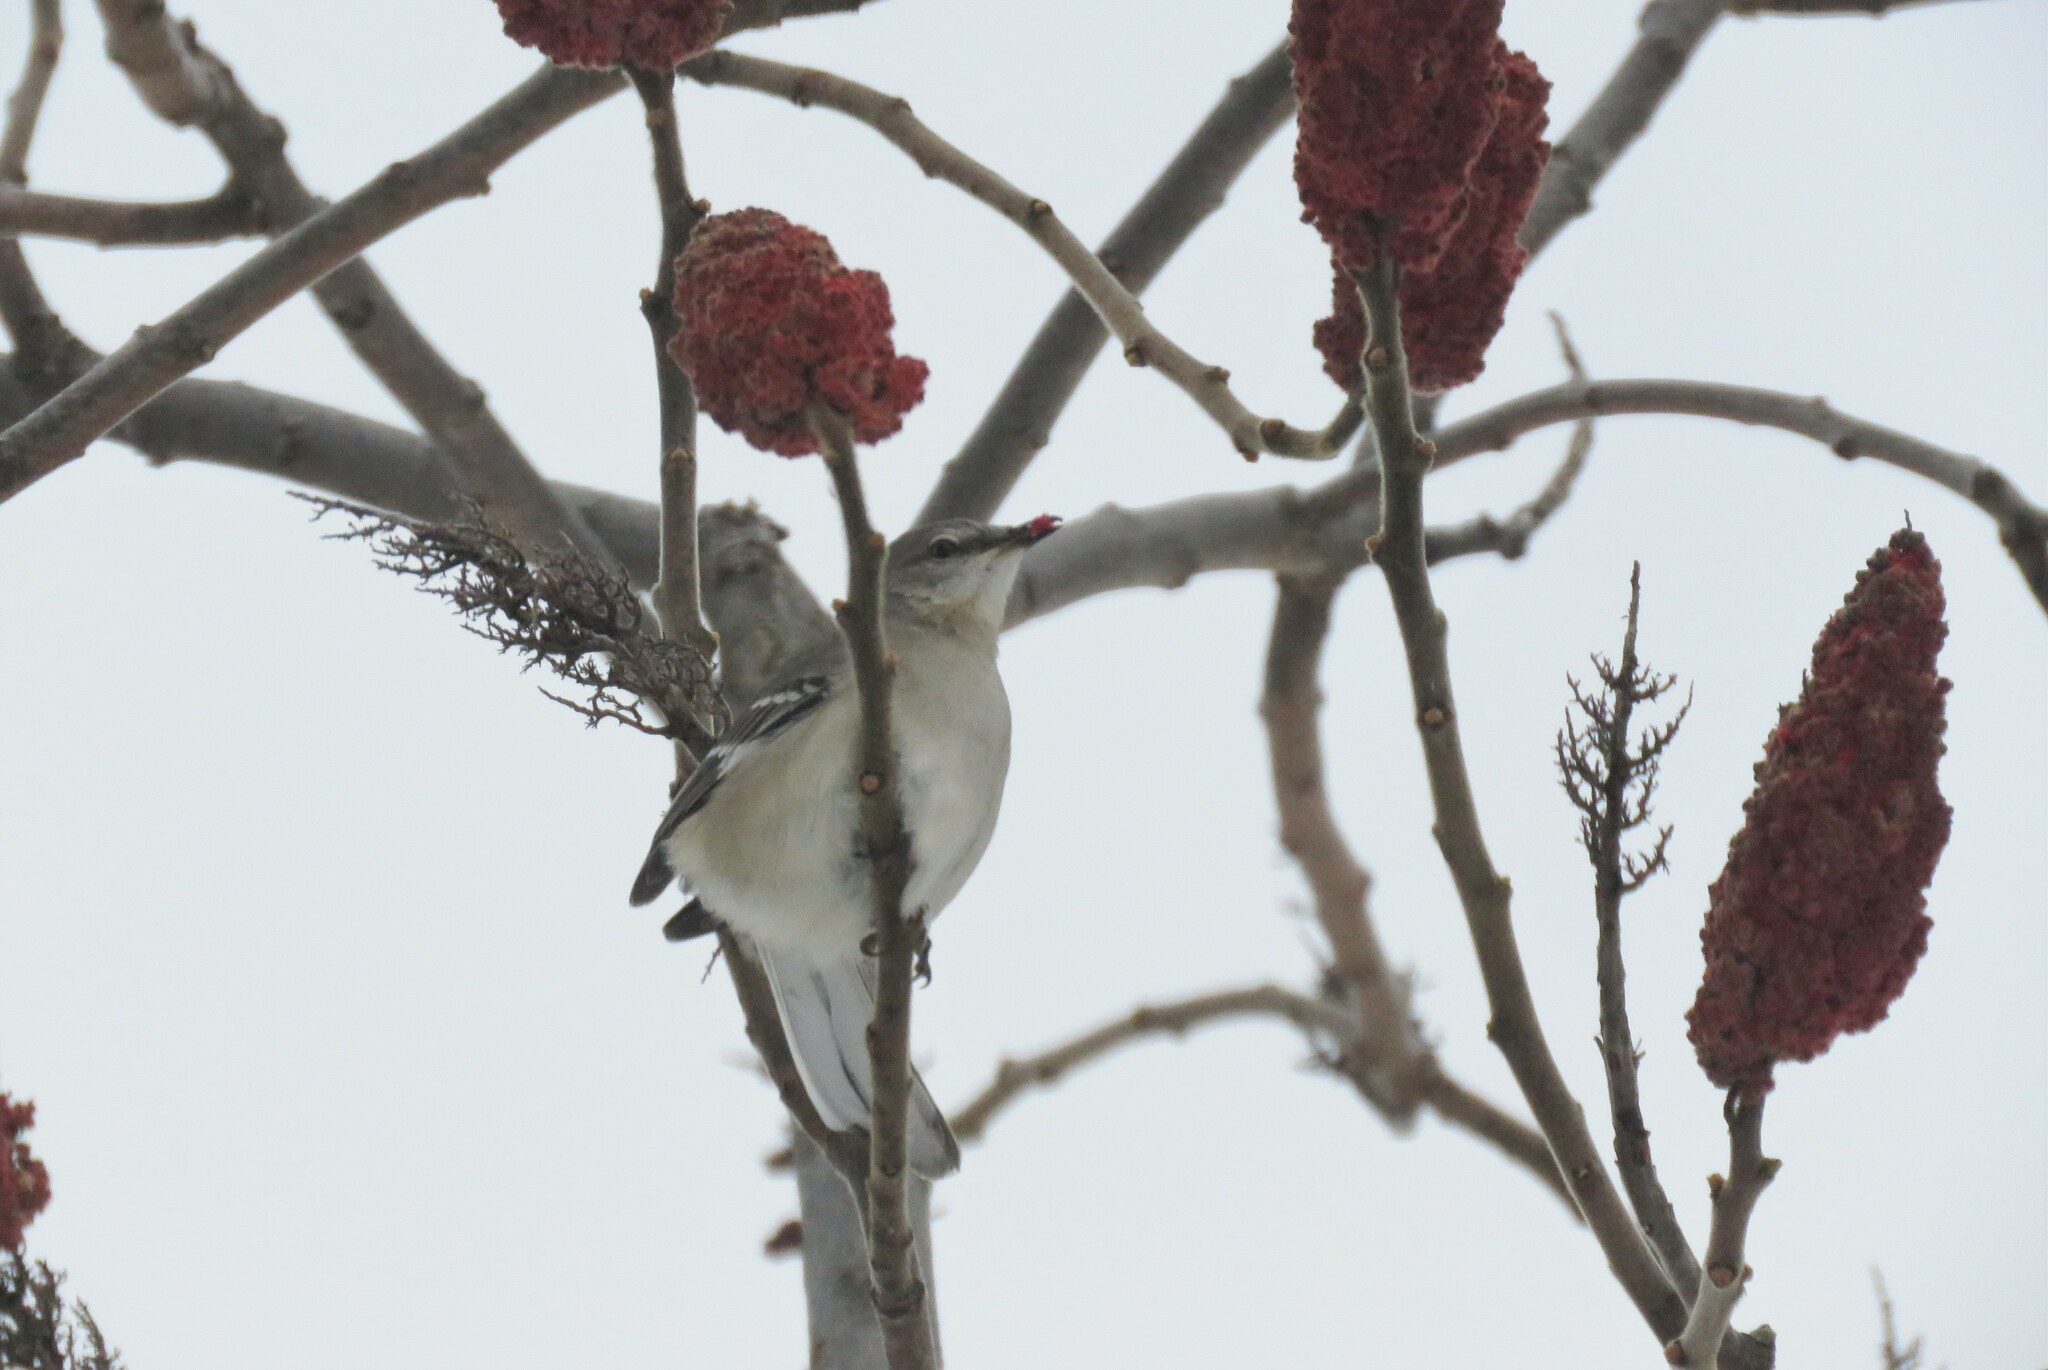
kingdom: Animalia
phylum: Chordata
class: Aves
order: Passeriformes
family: Mimidae
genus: Mimus
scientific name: Mimus polyglottos
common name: Northern mockingbird
